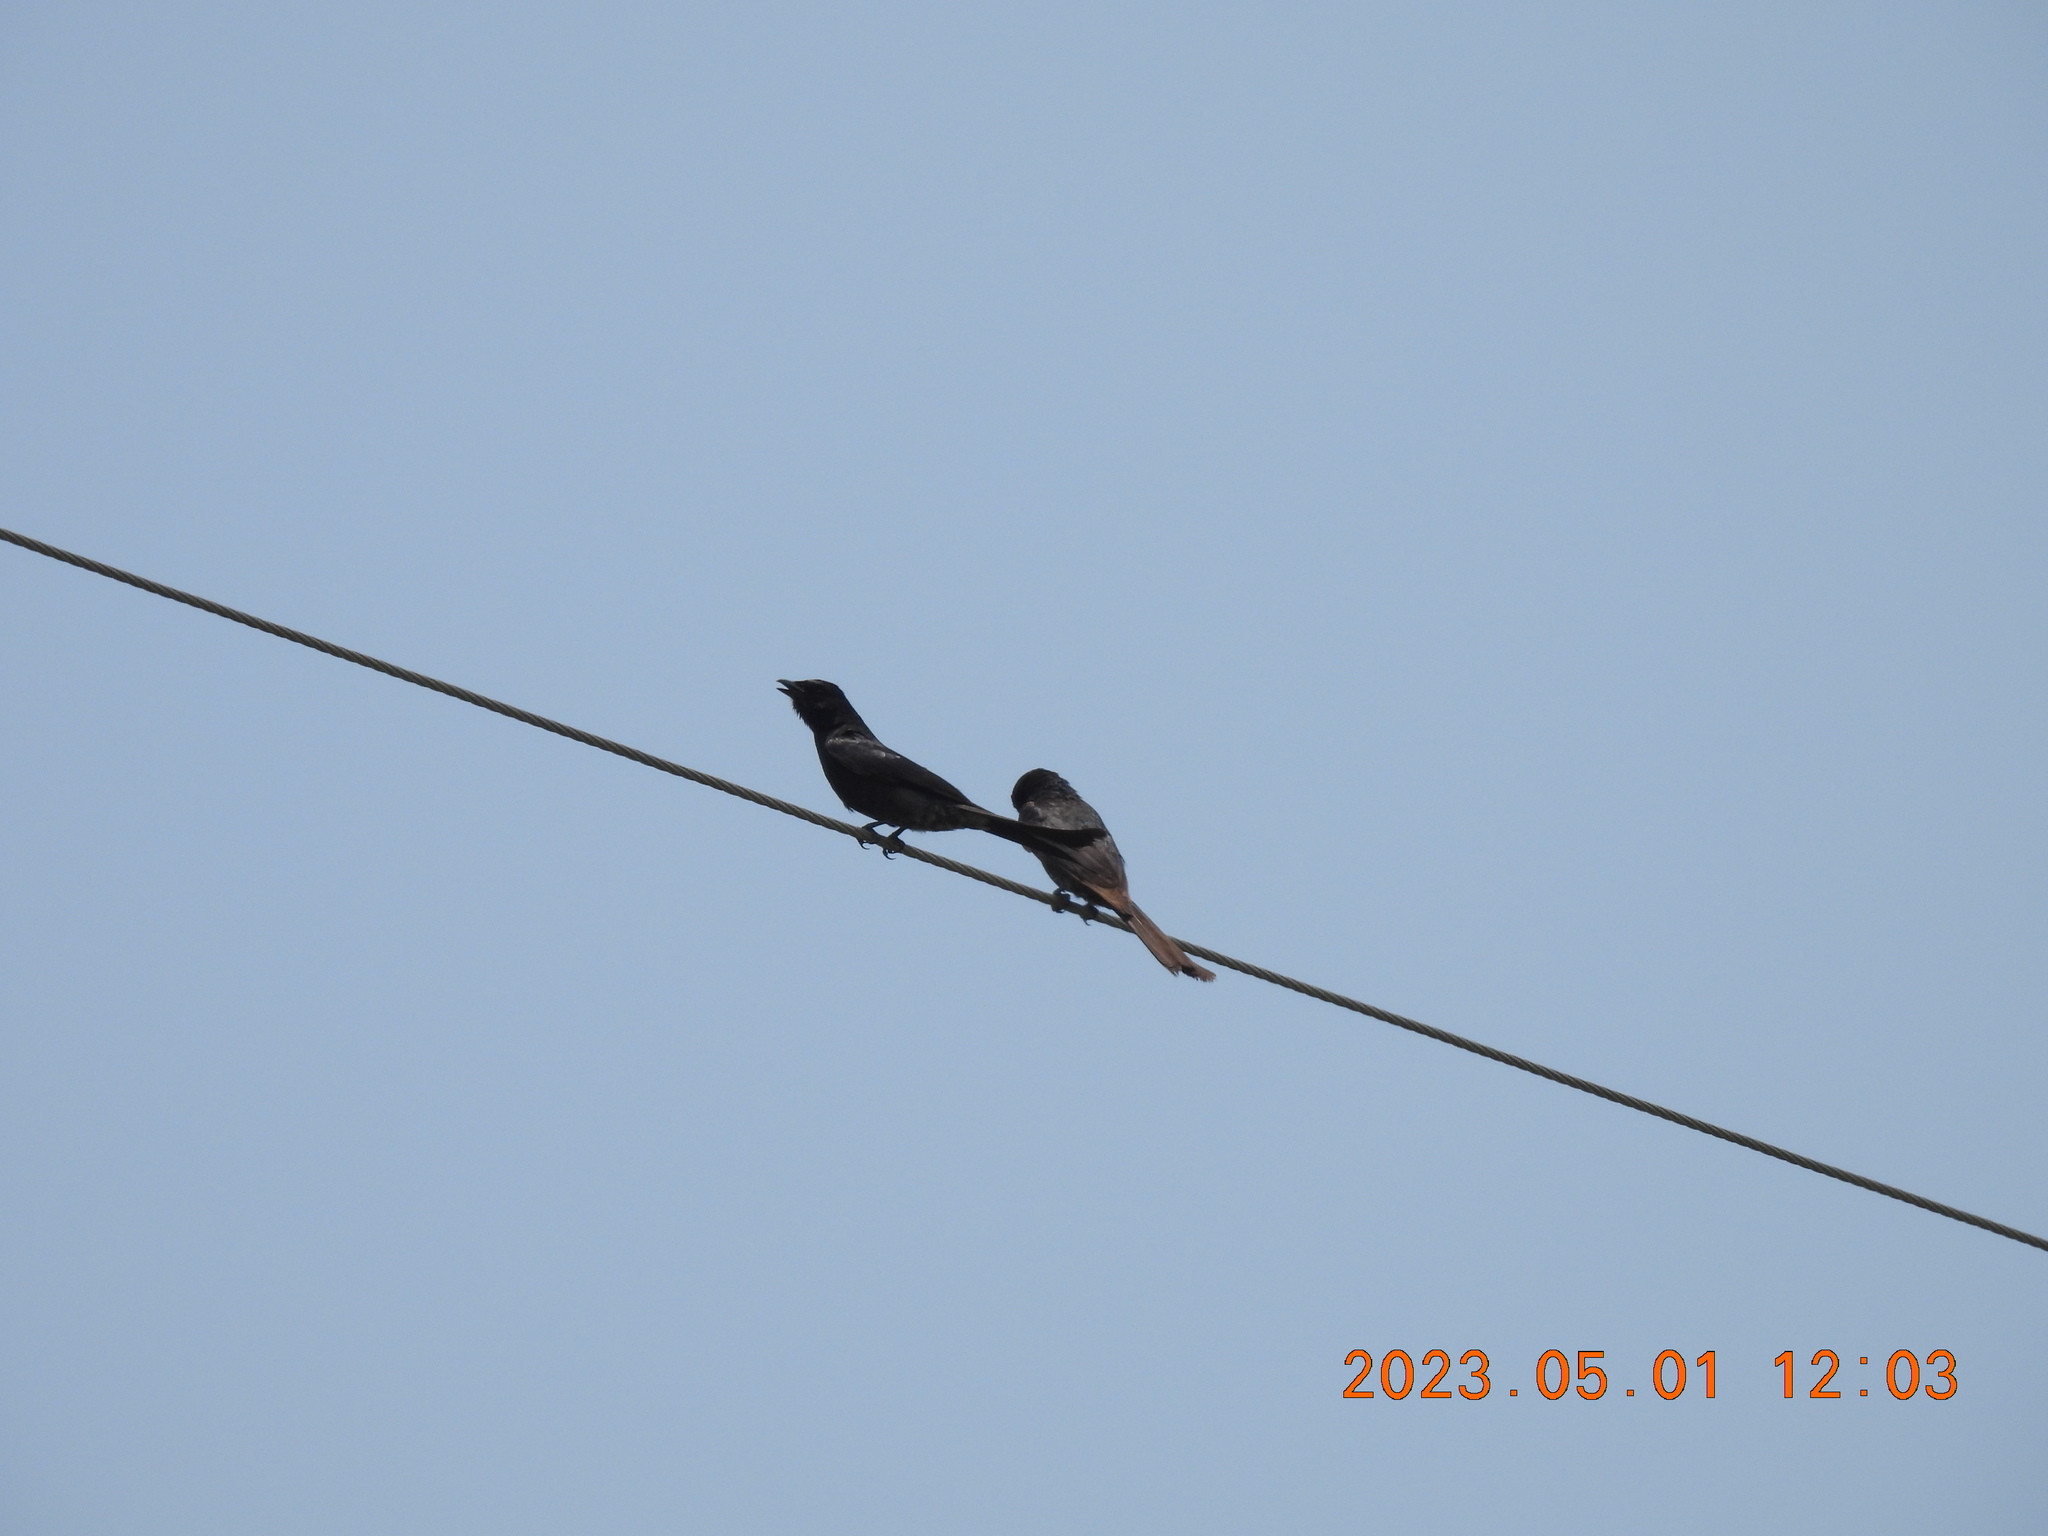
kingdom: Animalia
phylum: Chordata
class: Aves
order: Passeriformes
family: Dicruridae
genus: Dicrurus
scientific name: Dicrurus macrocercus
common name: Black drongo
